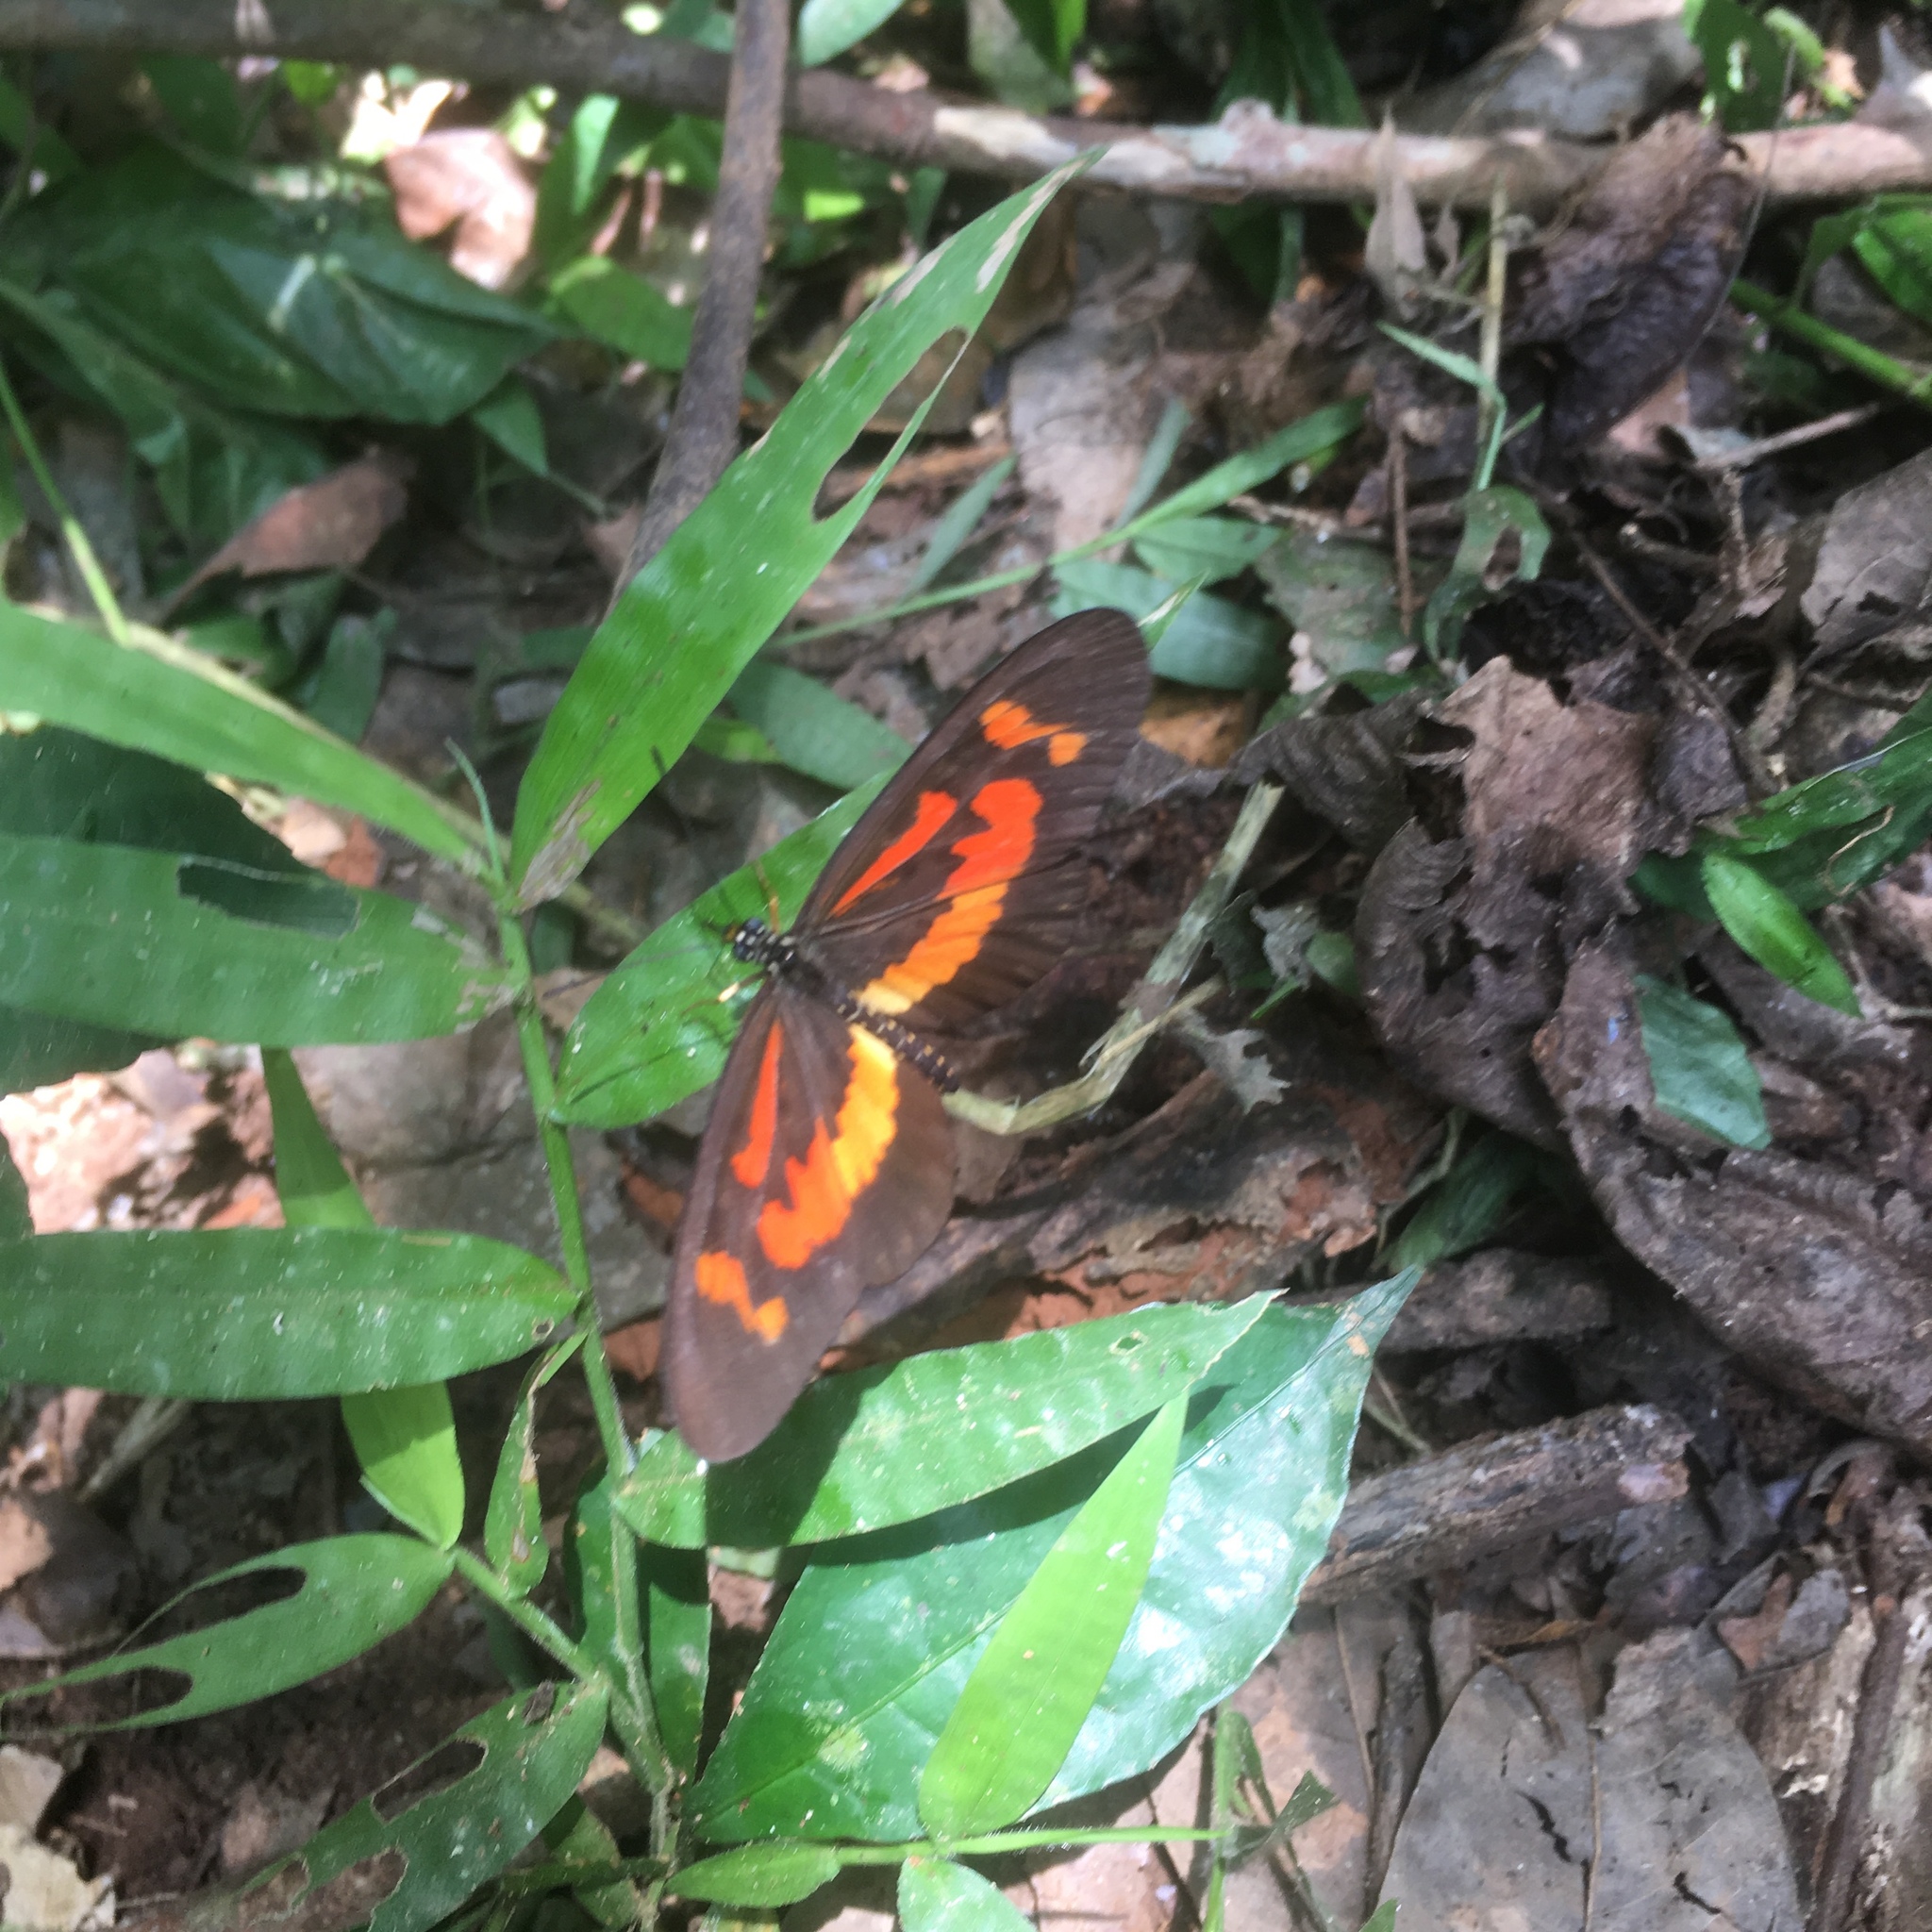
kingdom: Animalia
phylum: Arthropoda
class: Insecta
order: Lepidoptera
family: Nymphalidae
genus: Acraea
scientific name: Acraea
